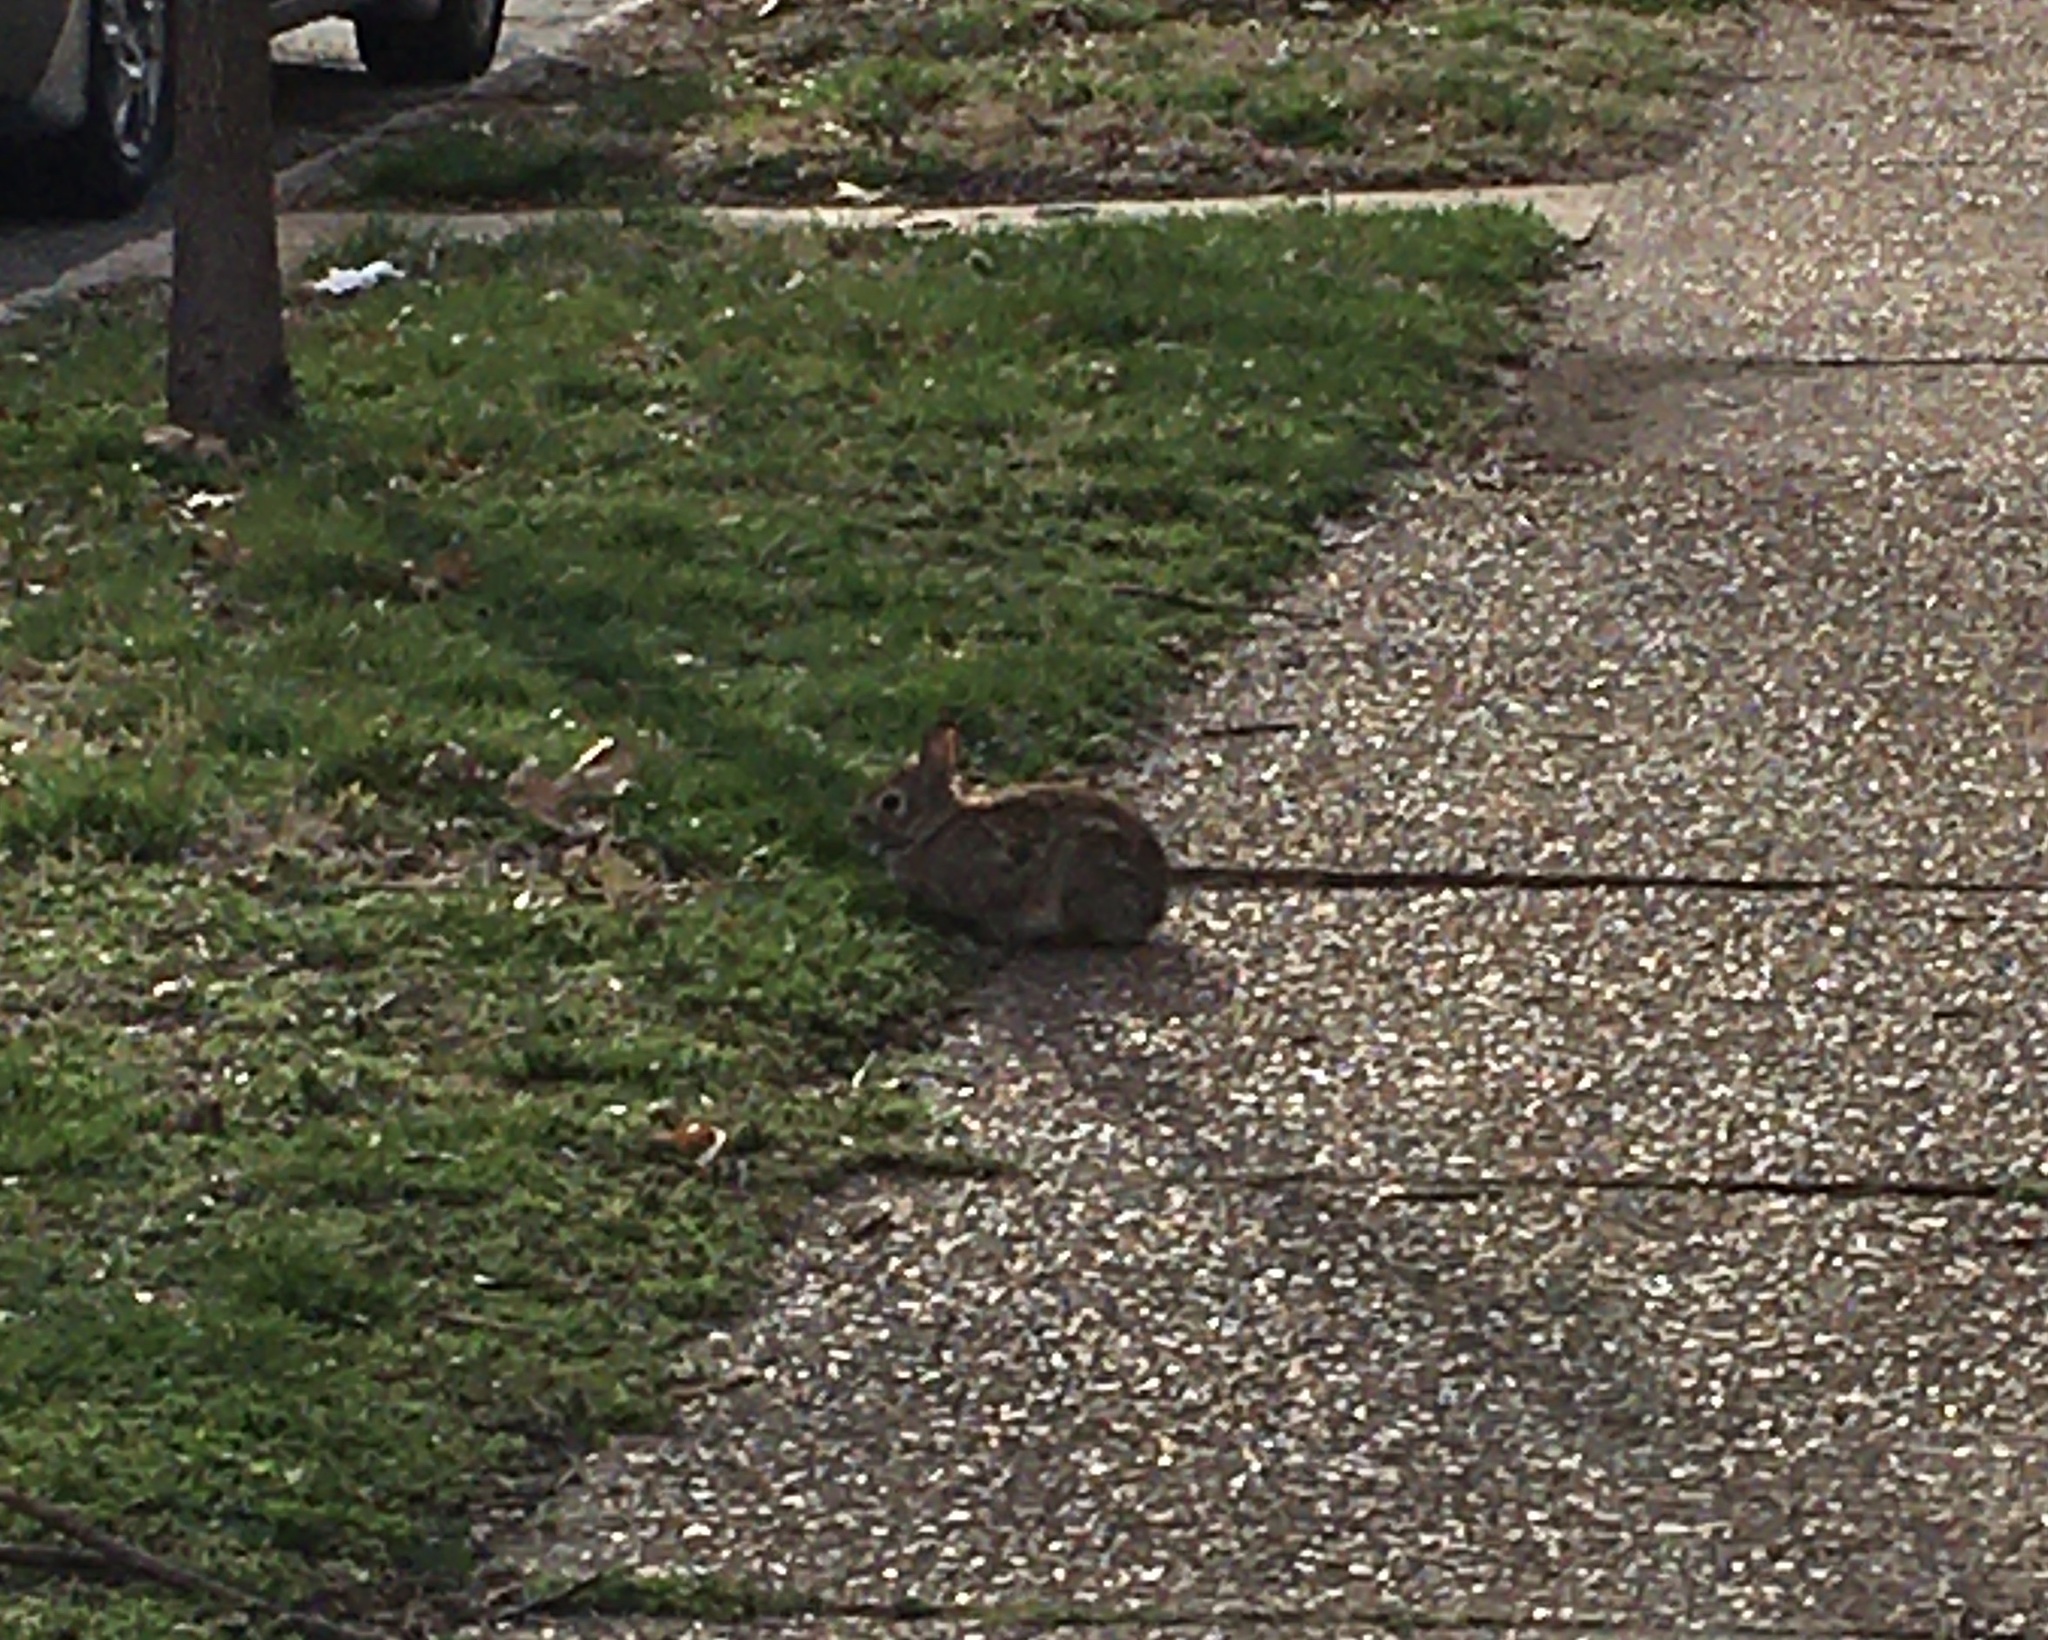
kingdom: Animalia
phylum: Chordata
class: Mammalia
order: Lagomorpha
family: Leporidae
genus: Sylvilagus
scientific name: Sylvilagus floridanus
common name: Eastern cottontail
